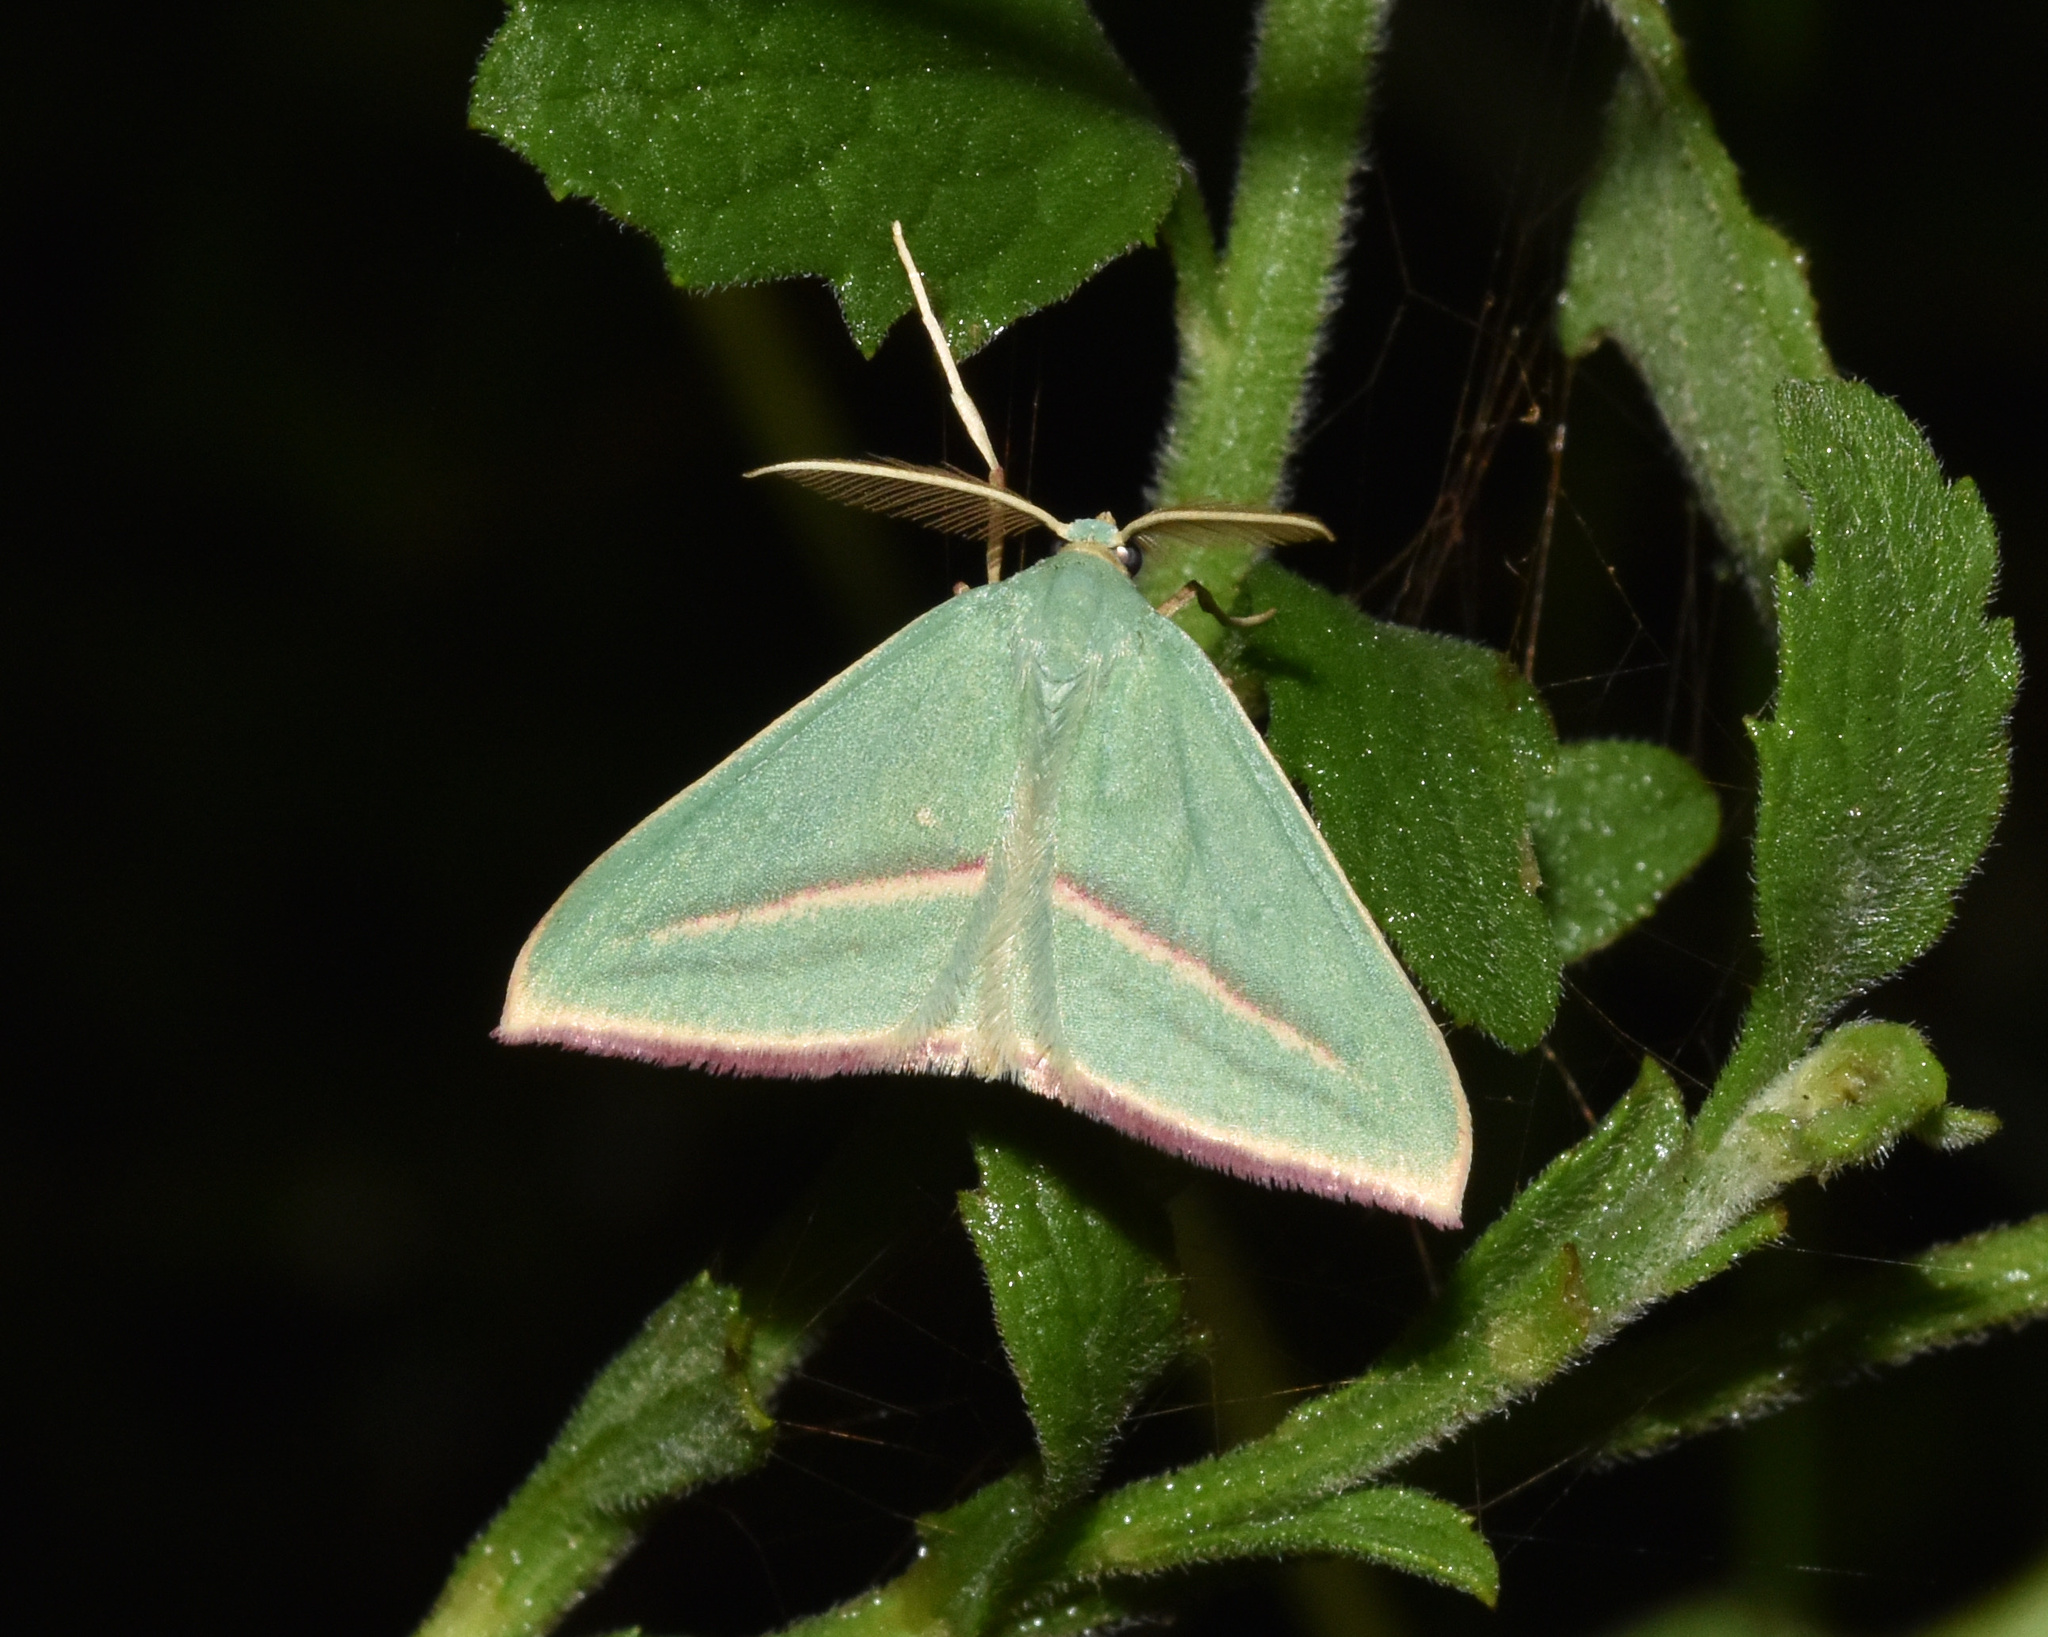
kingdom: Animalia
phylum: Arthropoda
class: Insecta
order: Lepidoptera
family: Geometridae
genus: Chlorerythra
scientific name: Chlorerythra rubriplaga
